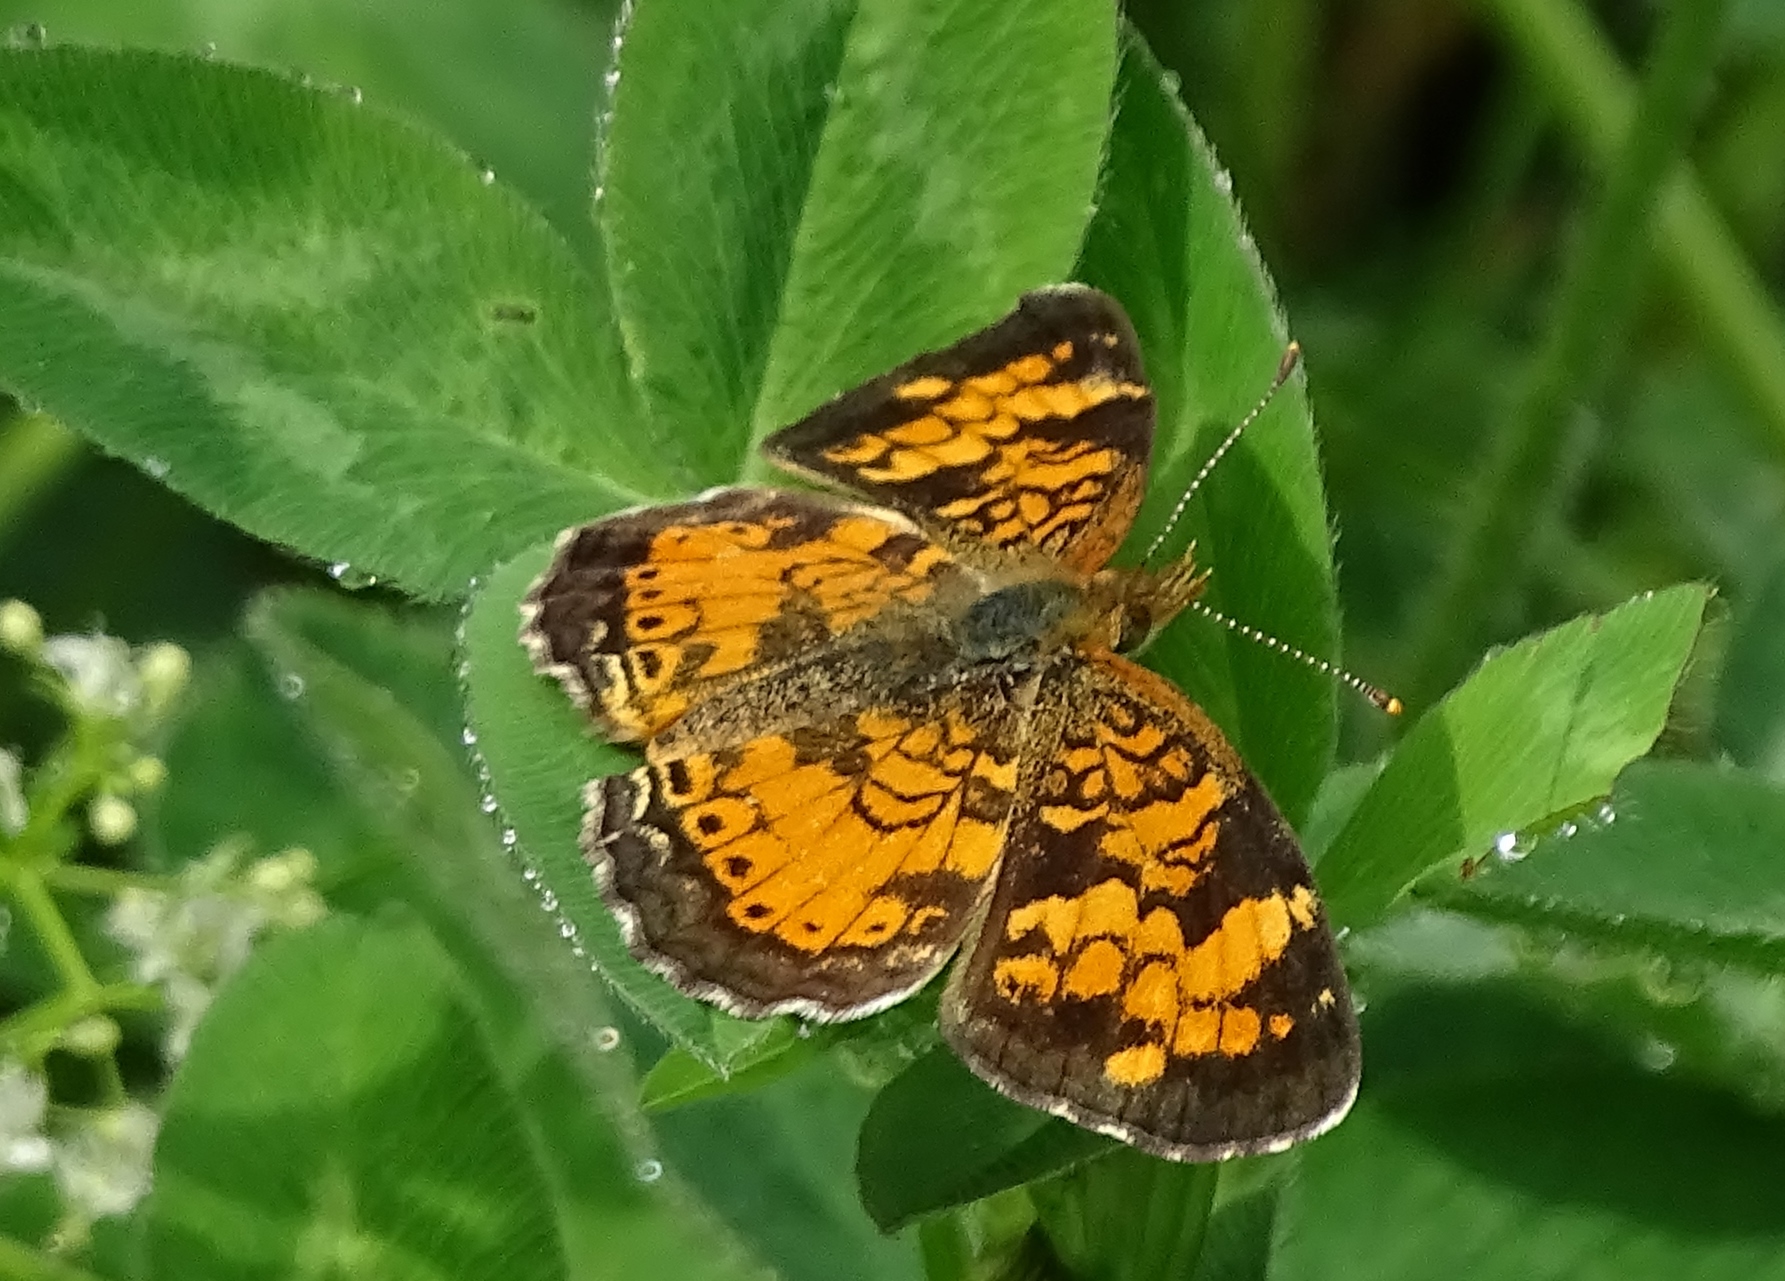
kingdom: Animalia
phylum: Arthropoda
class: Insecta
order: Lepidoptera
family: Nymphalidae
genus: Phyciodes
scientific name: Phyciodes tharos
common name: Pearl crescent
